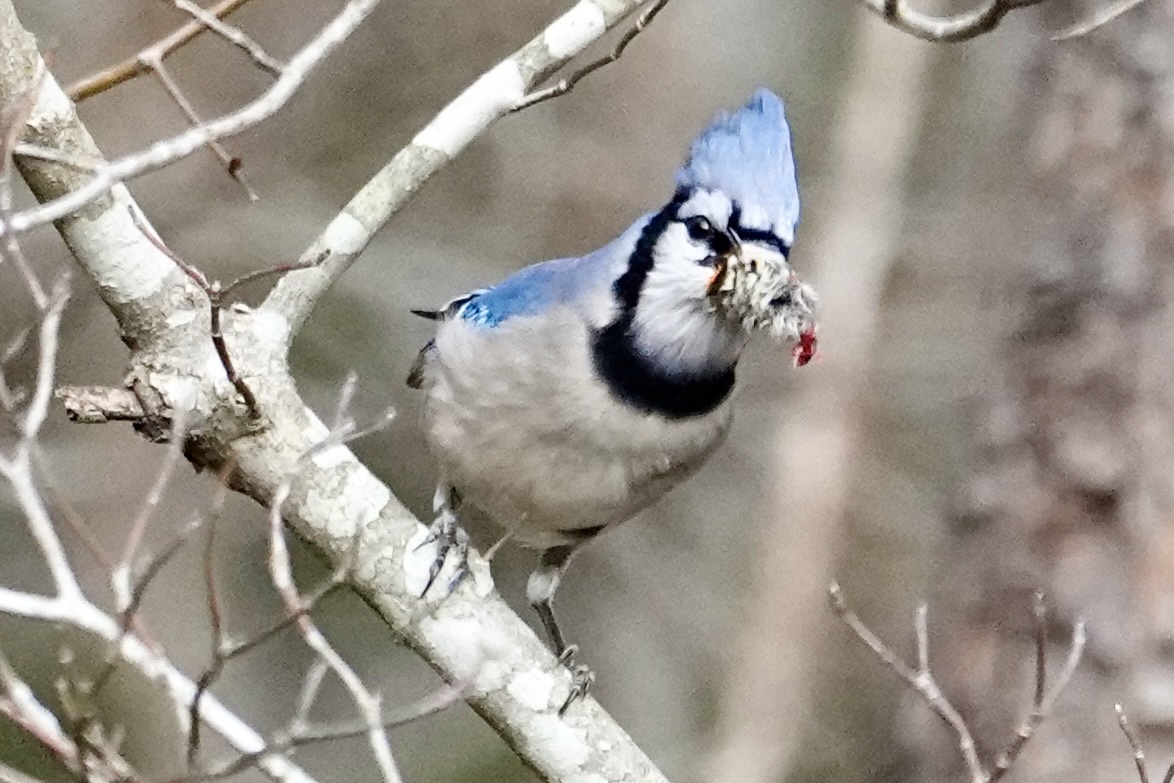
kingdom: Animalia
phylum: Chordata
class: Aves
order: Passeriformes
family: Corvidae
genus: Cyanocitta
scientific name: Cyanocitta cristata
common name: Blue jay
